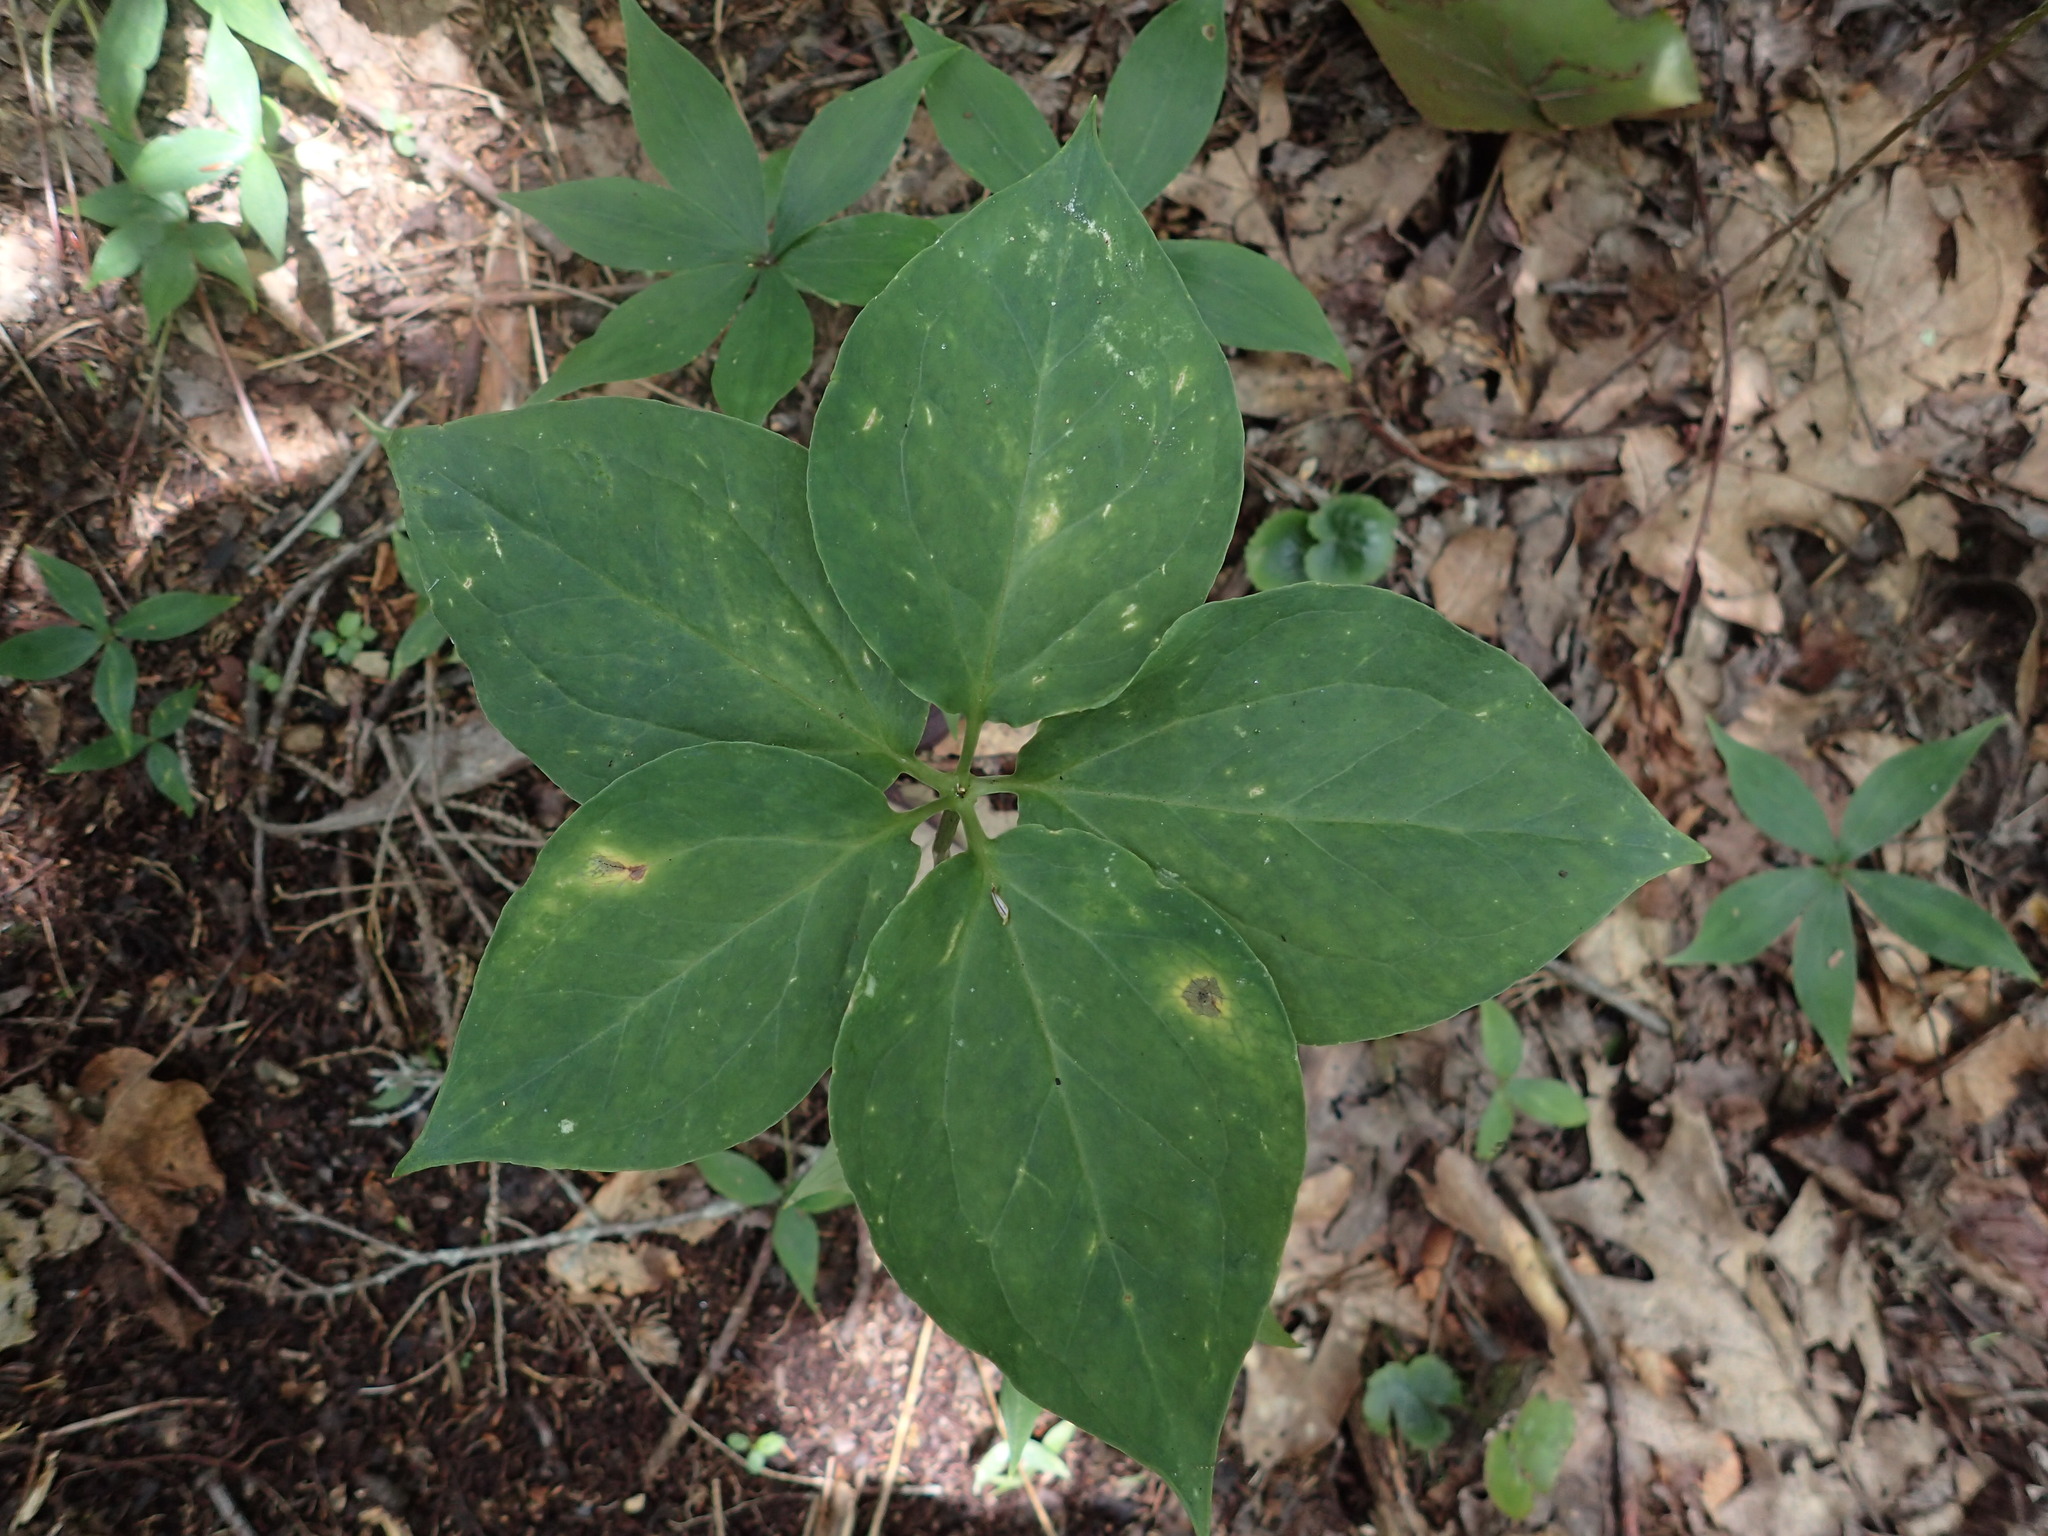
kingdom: Plantae
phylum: Tracheophyta
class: Liliopsida
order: Liliales
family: Melanthiaceae
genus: Trillium
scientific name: Trillium undulatum
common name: Paint trillium
